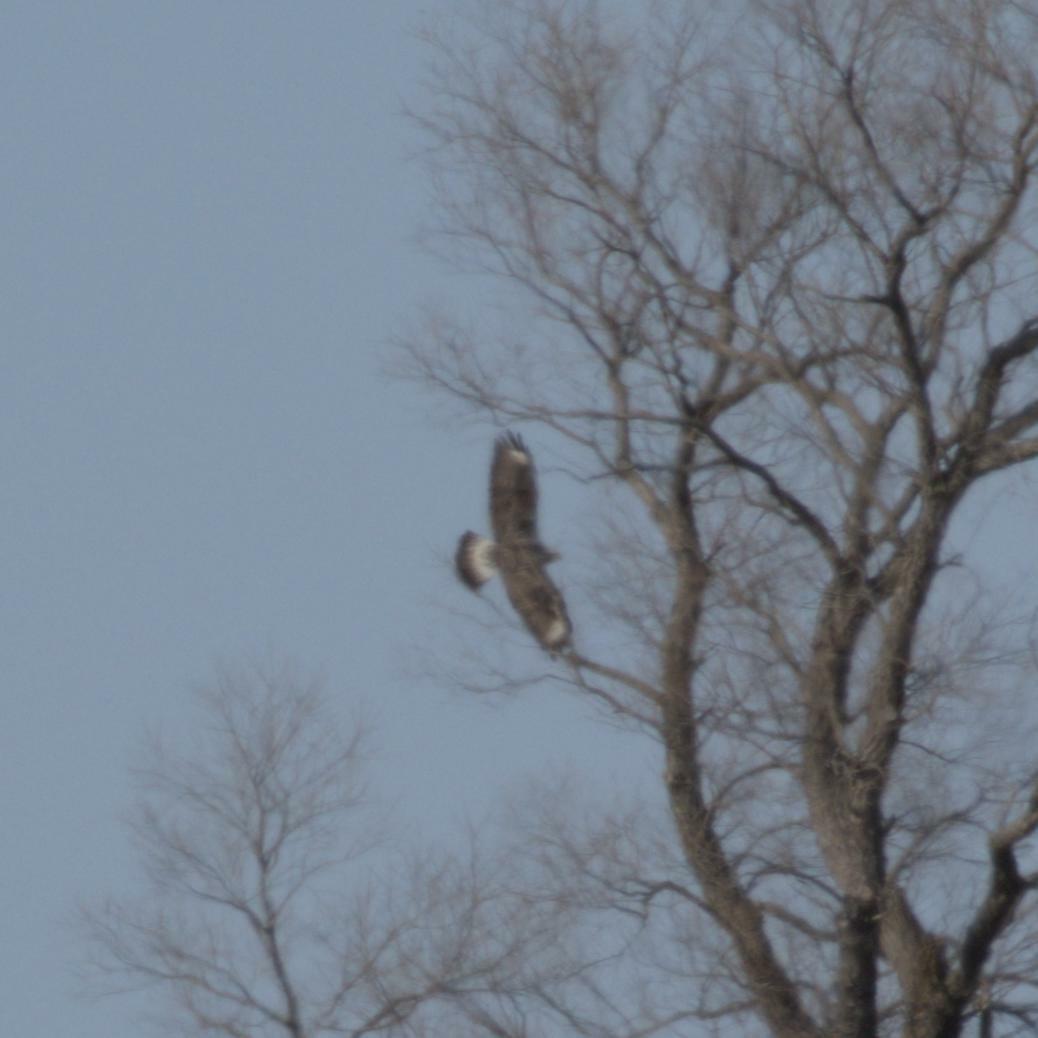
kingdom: Animalia
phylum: Chordata
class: Aves
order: Accipitriformes
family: Accipitridae
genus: Buteo
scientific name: Buteo lagopus
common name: Rough-legged buzzard
